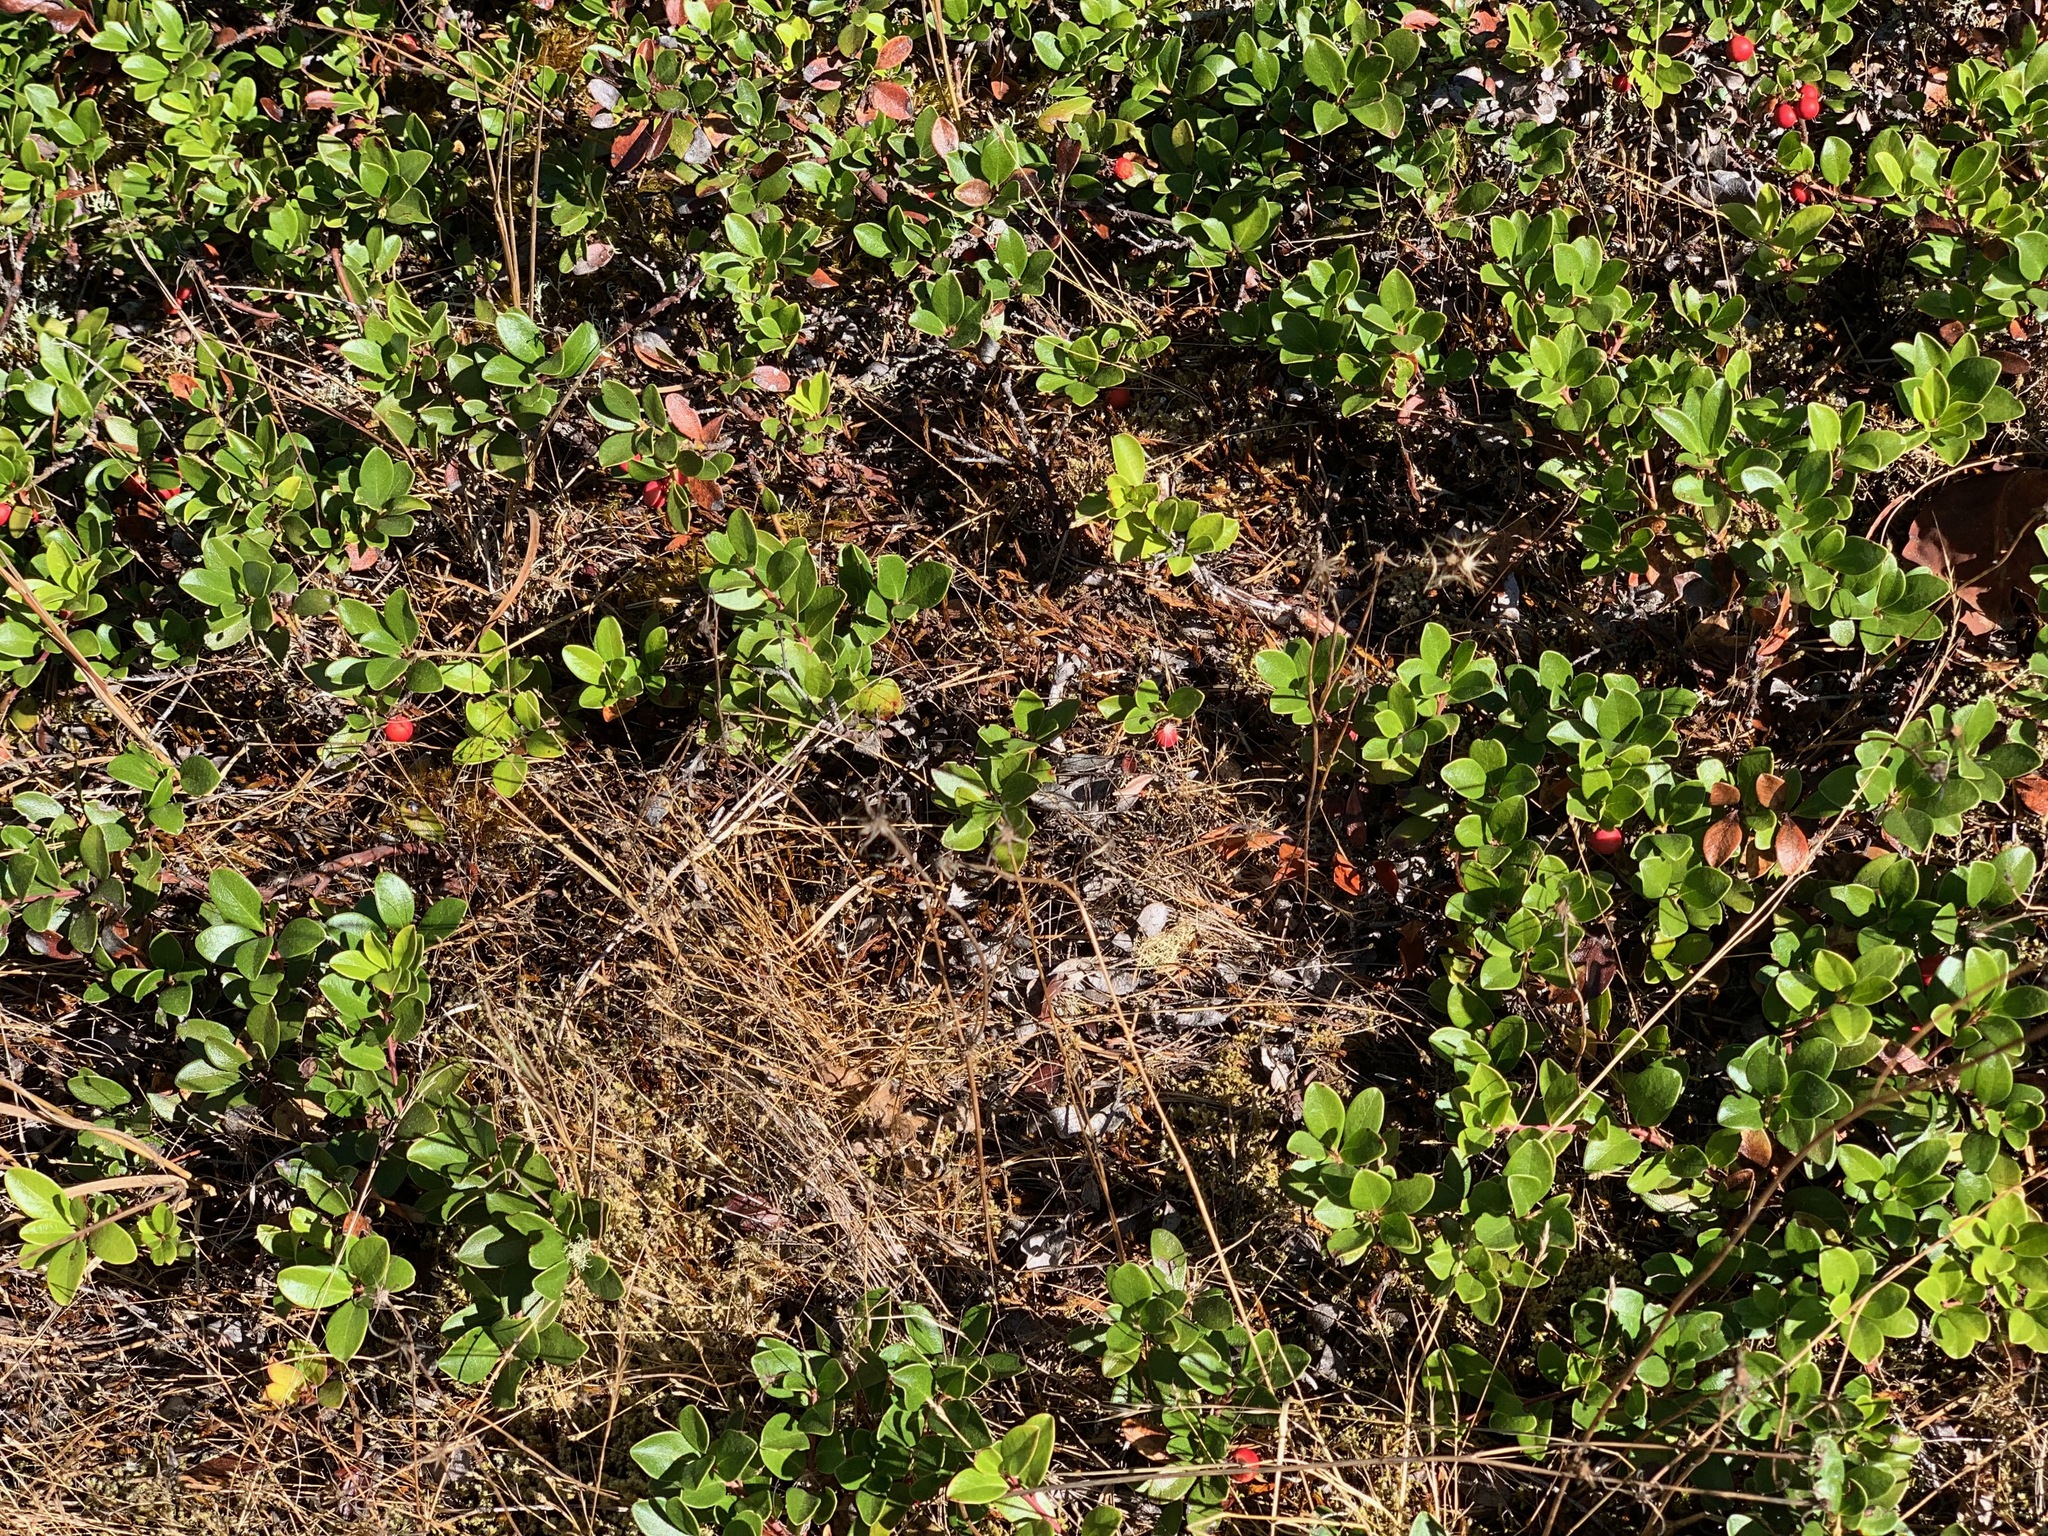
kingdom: Plantae
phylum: Tracheophyta
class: Magnoliopsida
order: Ericales
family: Ericaceae
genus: Arctostaphylos
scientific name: Arctostaphylos uva-ursi
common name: Bearberry
